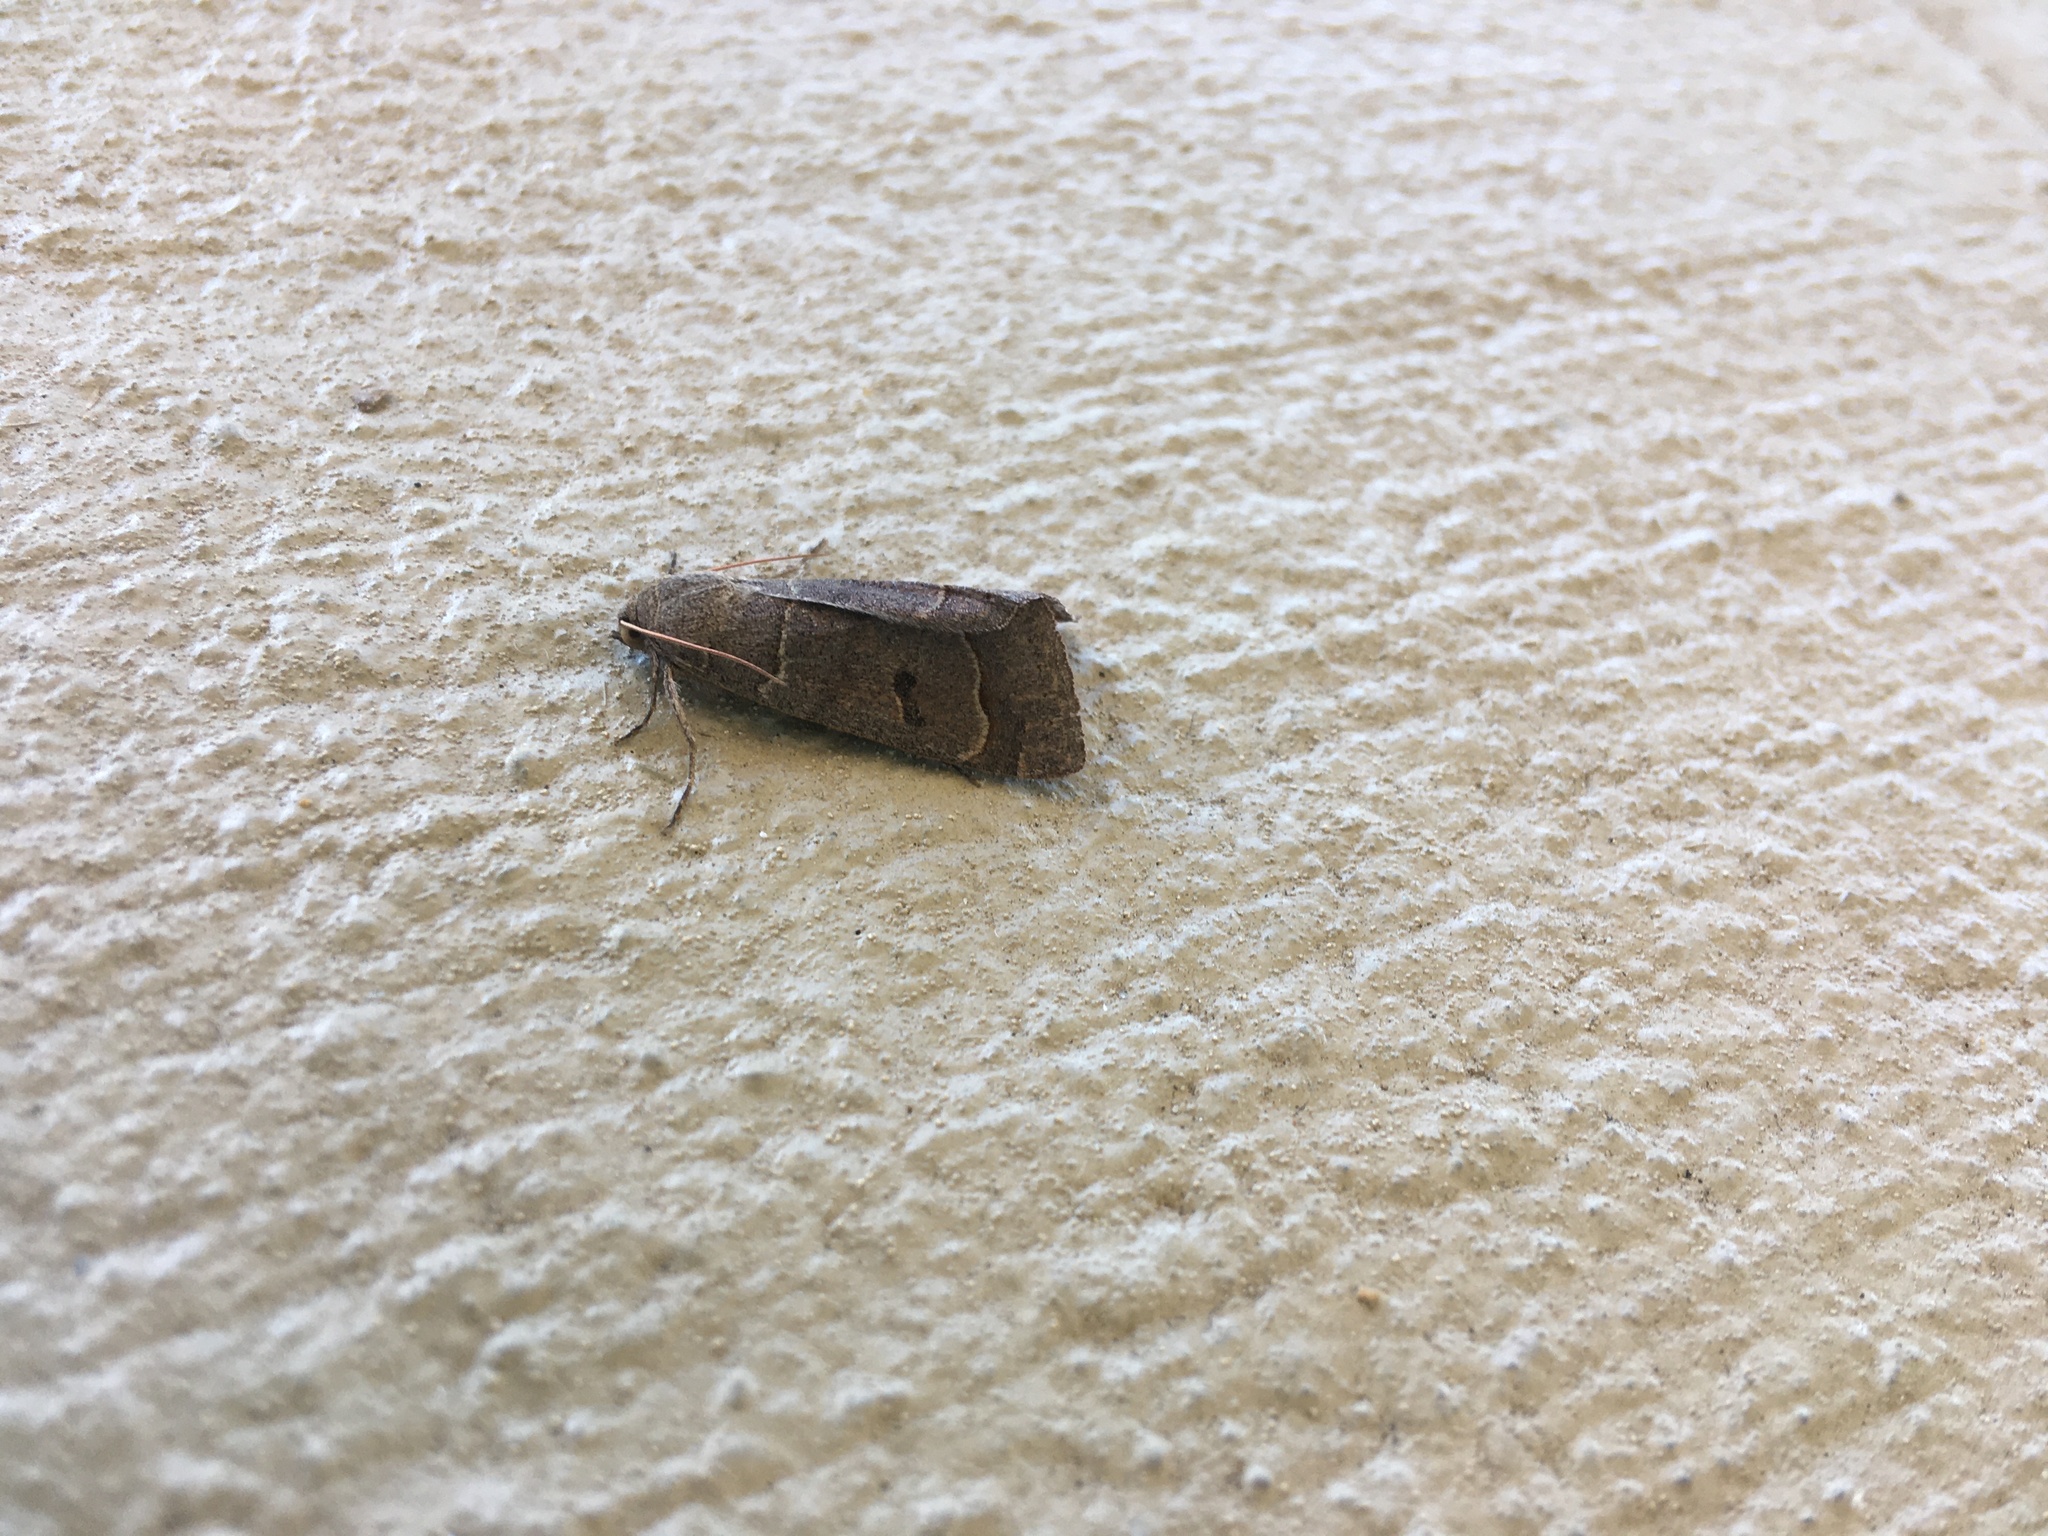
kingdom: Animalia
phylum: Arthropoda
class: Insecta
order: Lepidoptera
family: Erebidae
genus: Phoberia
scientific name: Phoberia atomaris
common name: Common oak moth
